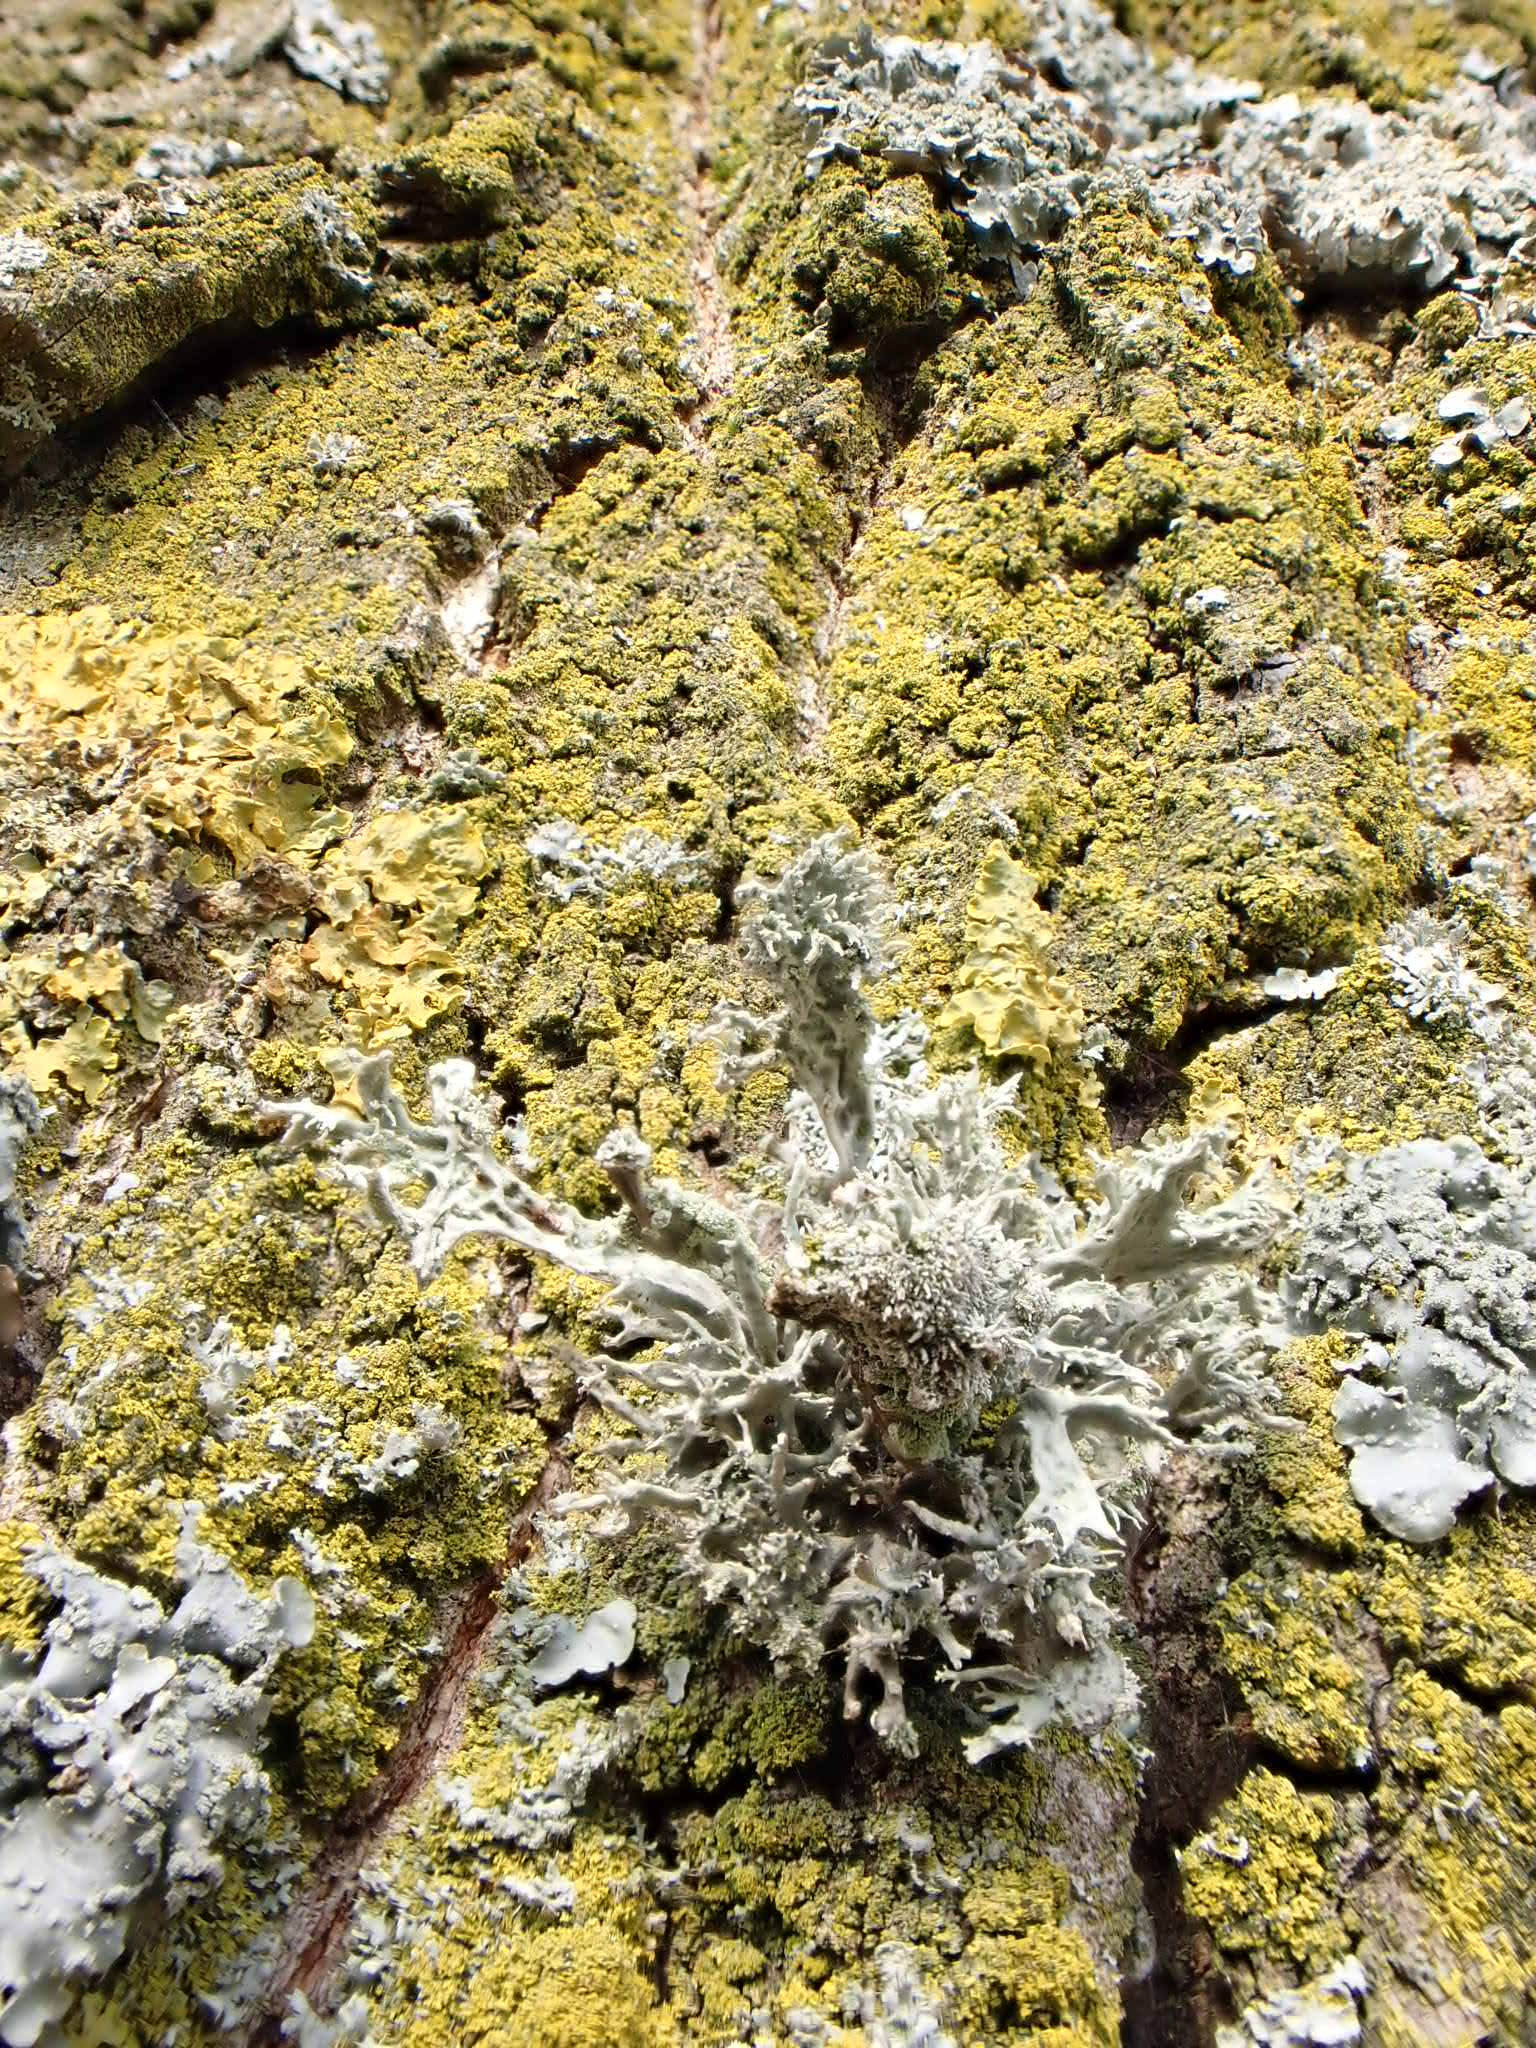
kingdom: Fungi
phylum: Ascomycota
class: Lecanoromycetes
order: Lecanorales
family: Ramalinaceae
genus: Ramalina
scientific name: Ramalina farinacea
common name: Farinose cartilage lichen
